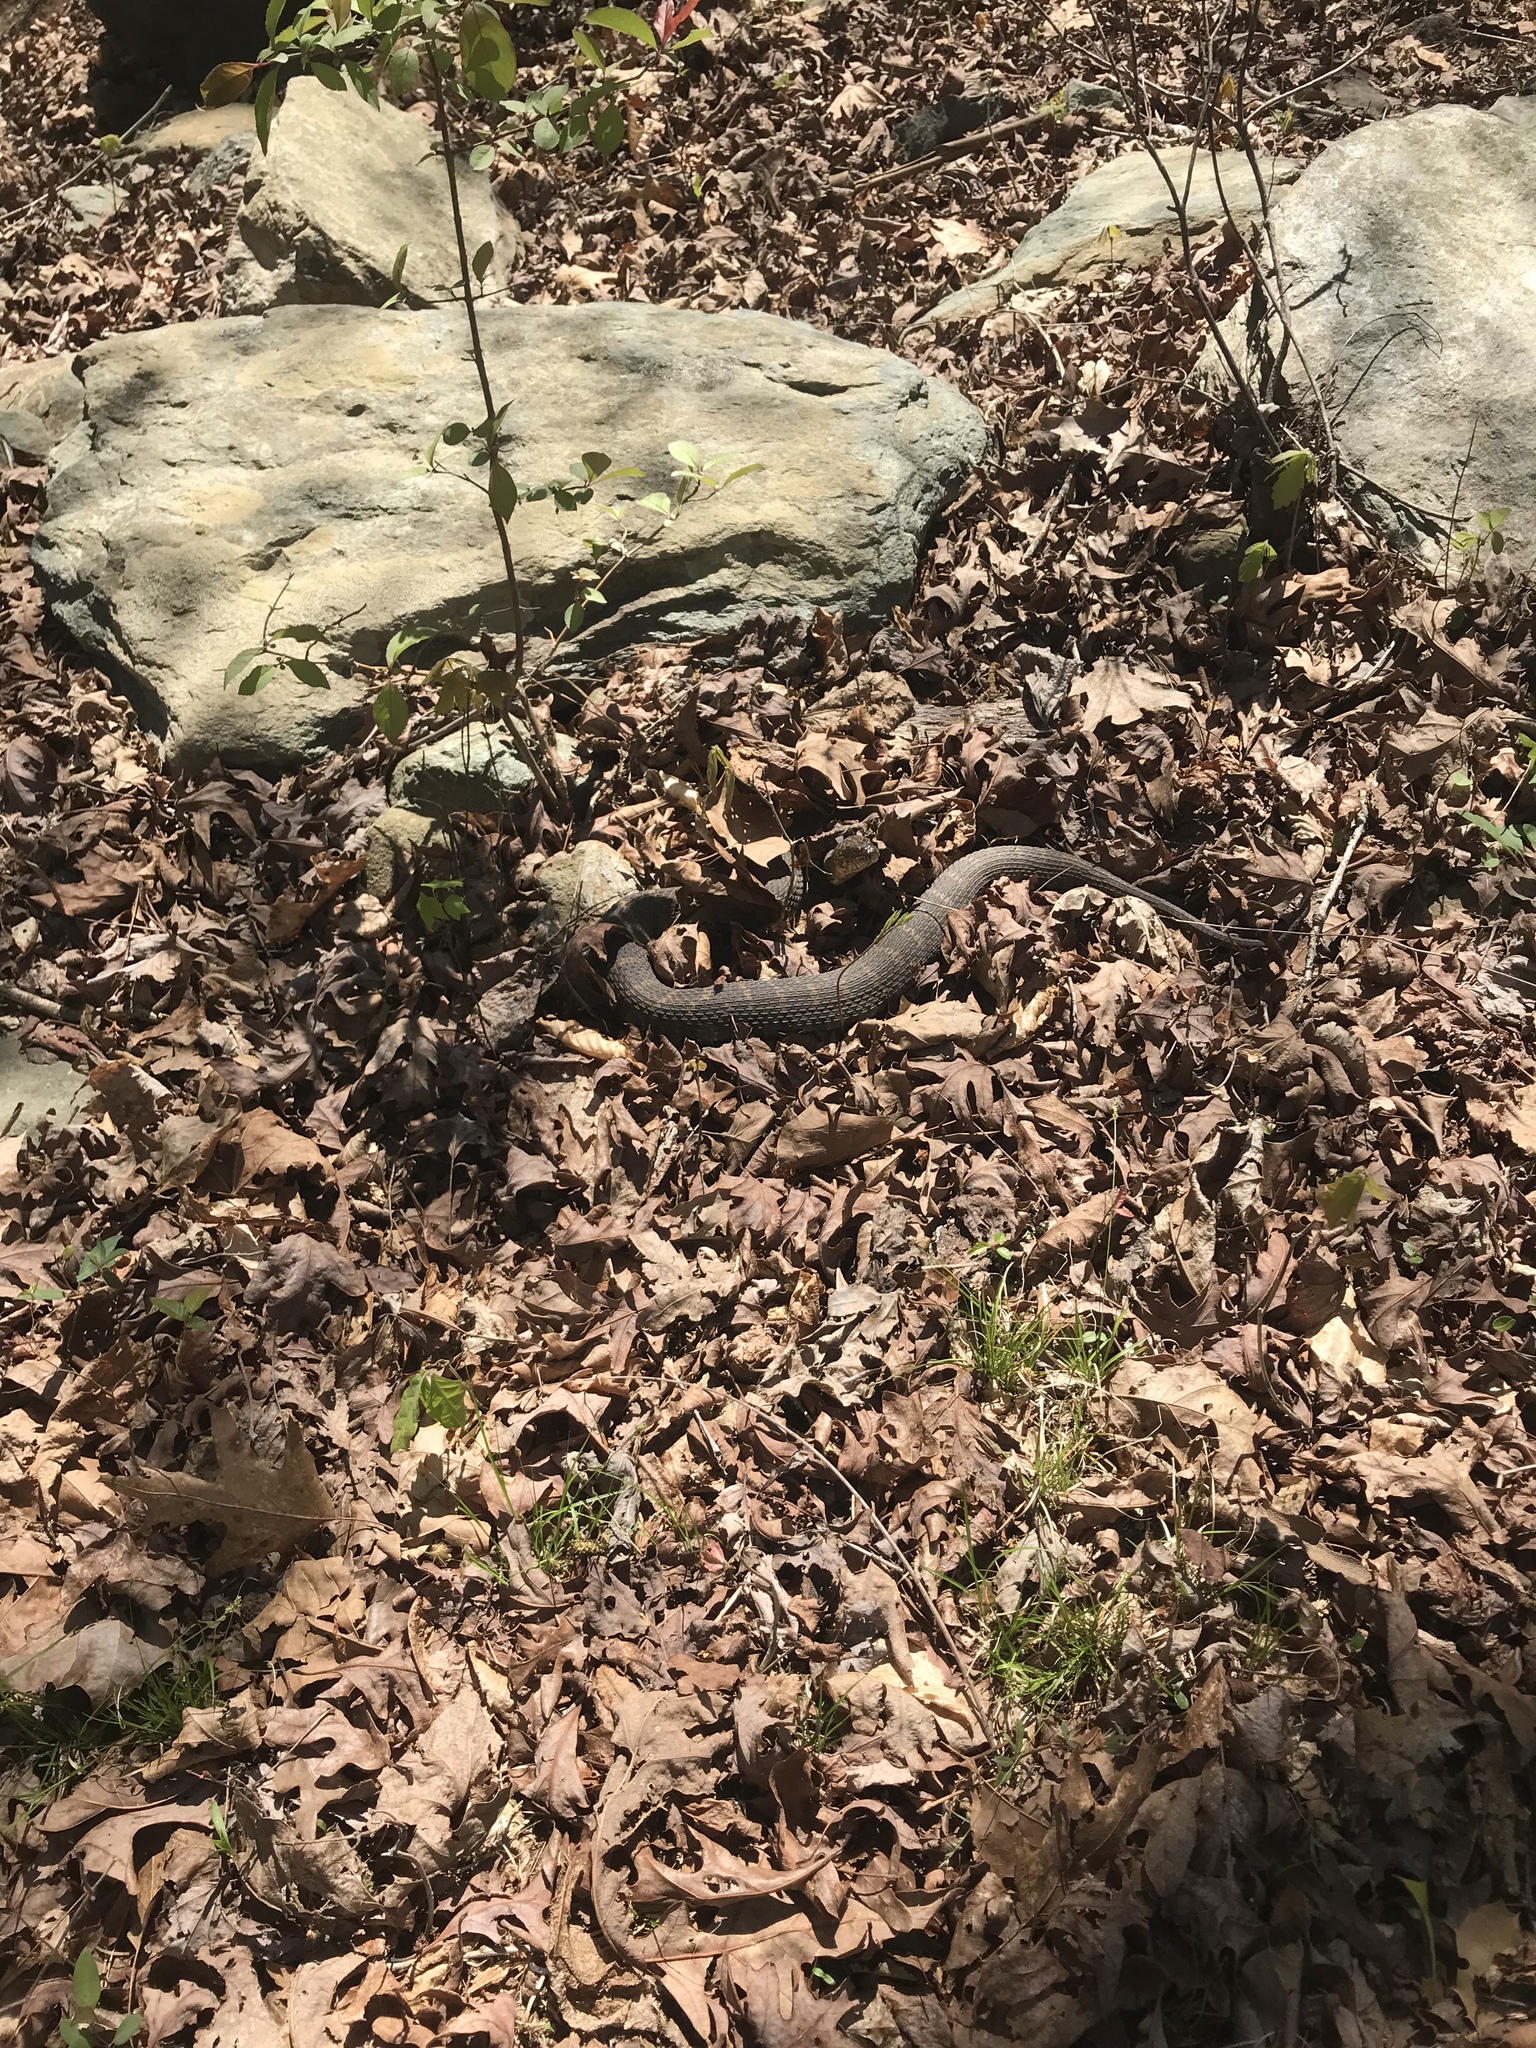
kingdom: Animalia
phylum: Chordata
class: Squamata
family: Colubridae
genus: Nerodia
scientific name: Nerodia sipedon
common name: Northern water snake
